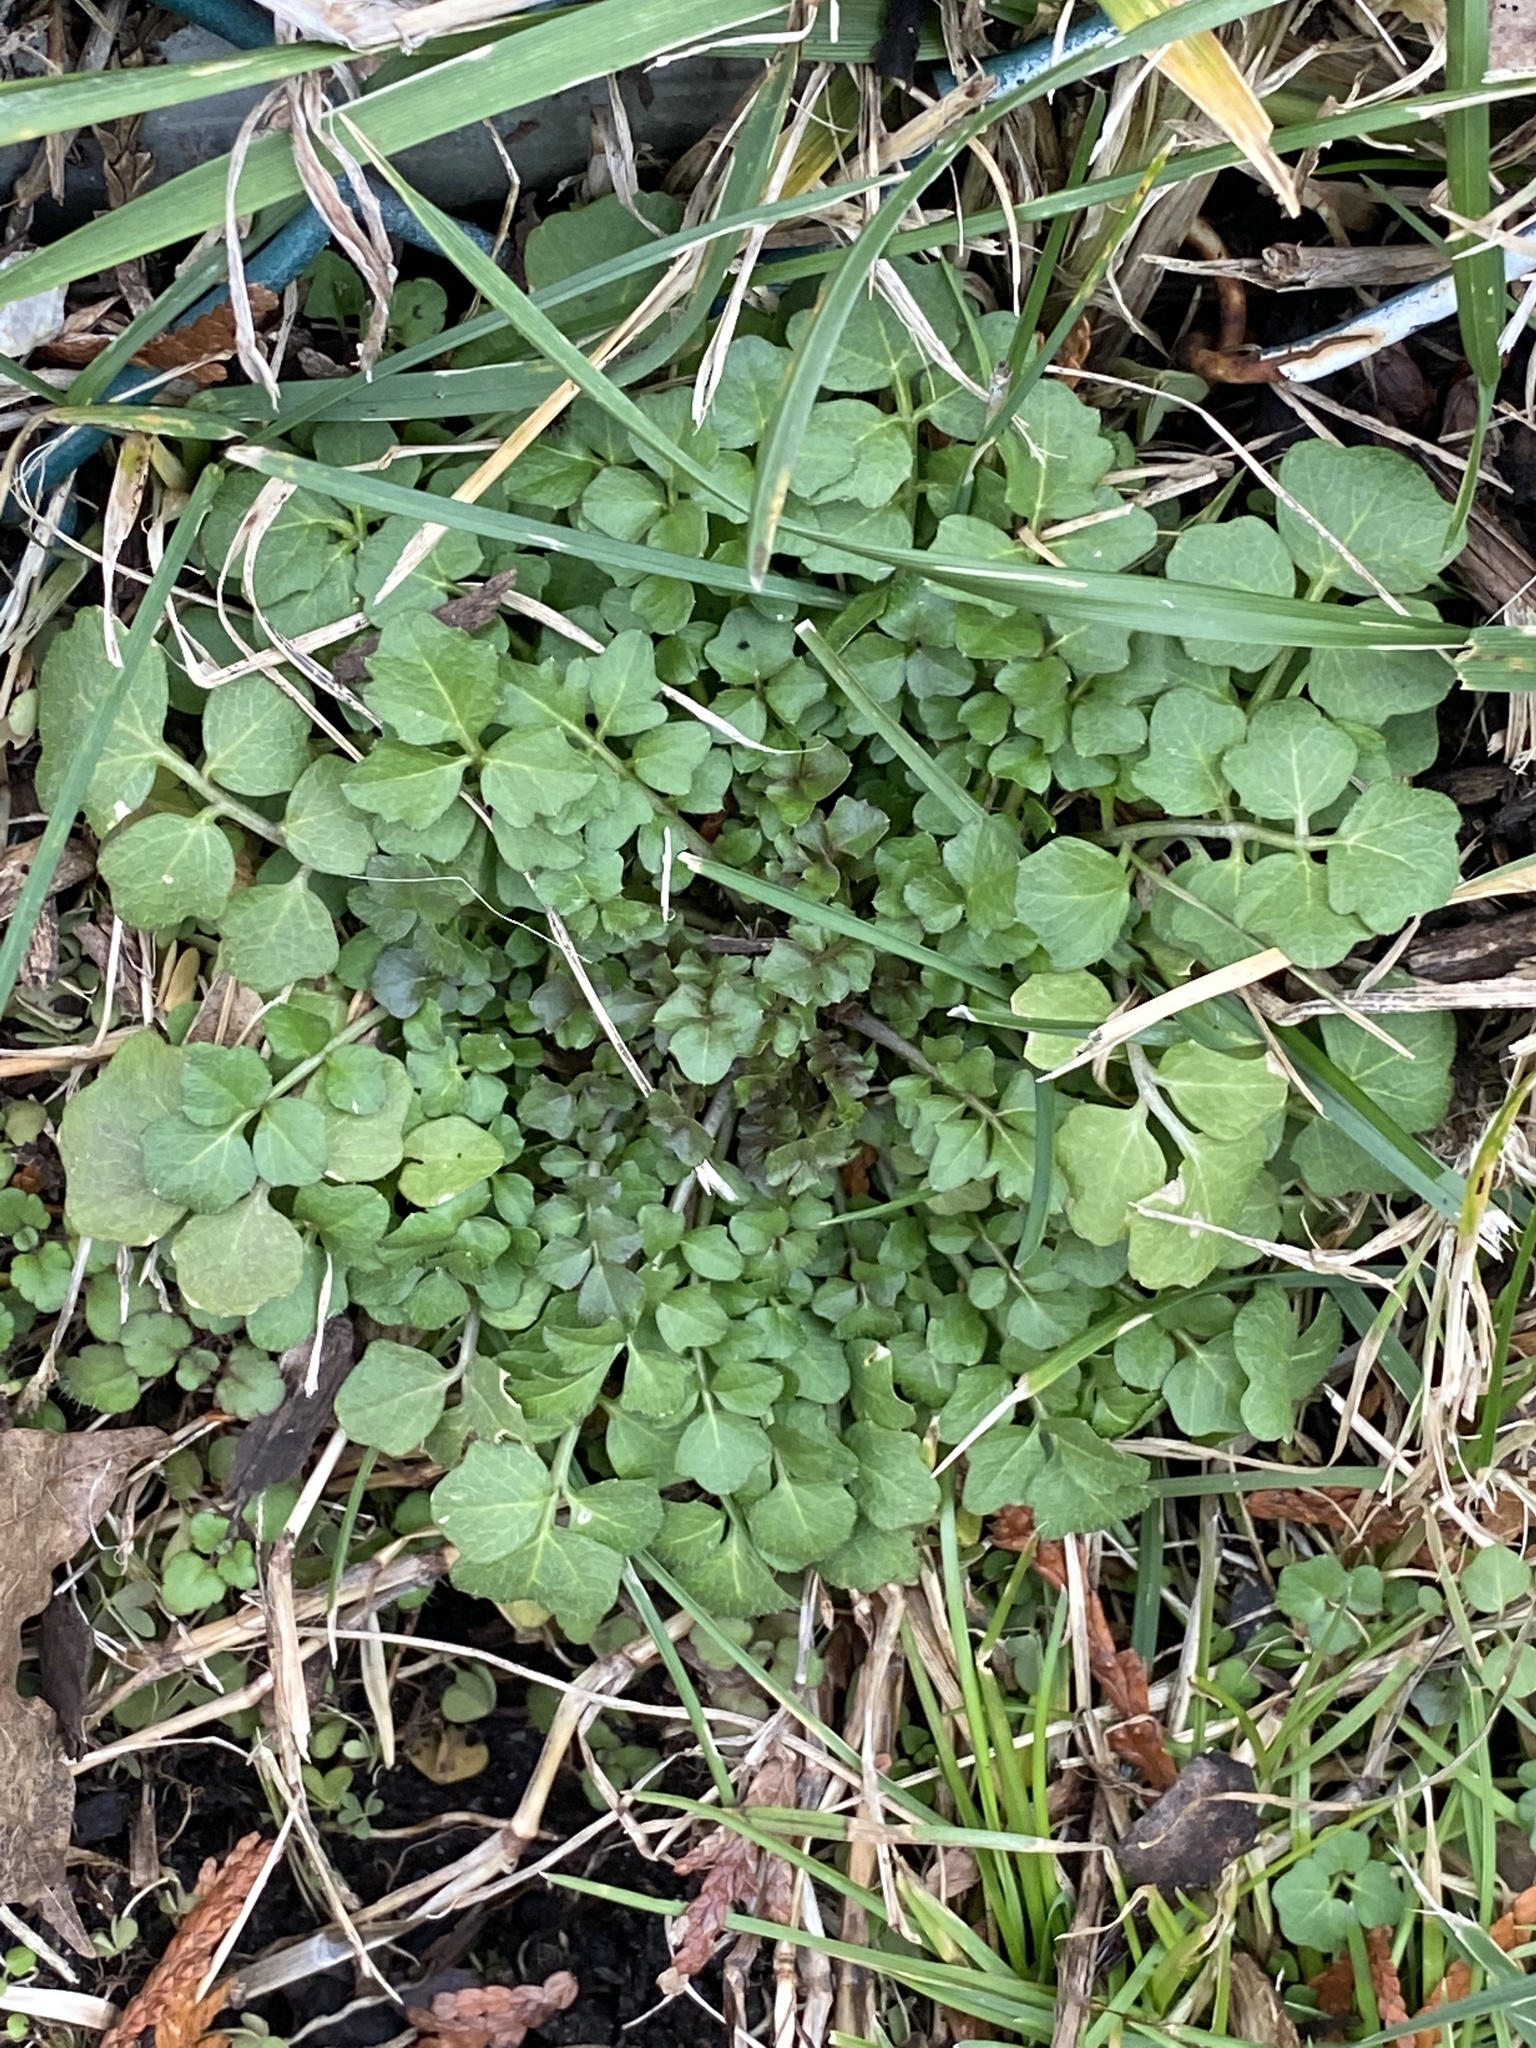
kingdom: Plantae
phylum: Tracheophyta
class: Magnoliopsida
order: Brassicales
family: Brassicaceae
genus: Cardamine
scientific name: Cardamine hirsuta
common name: Hairy bittercress
